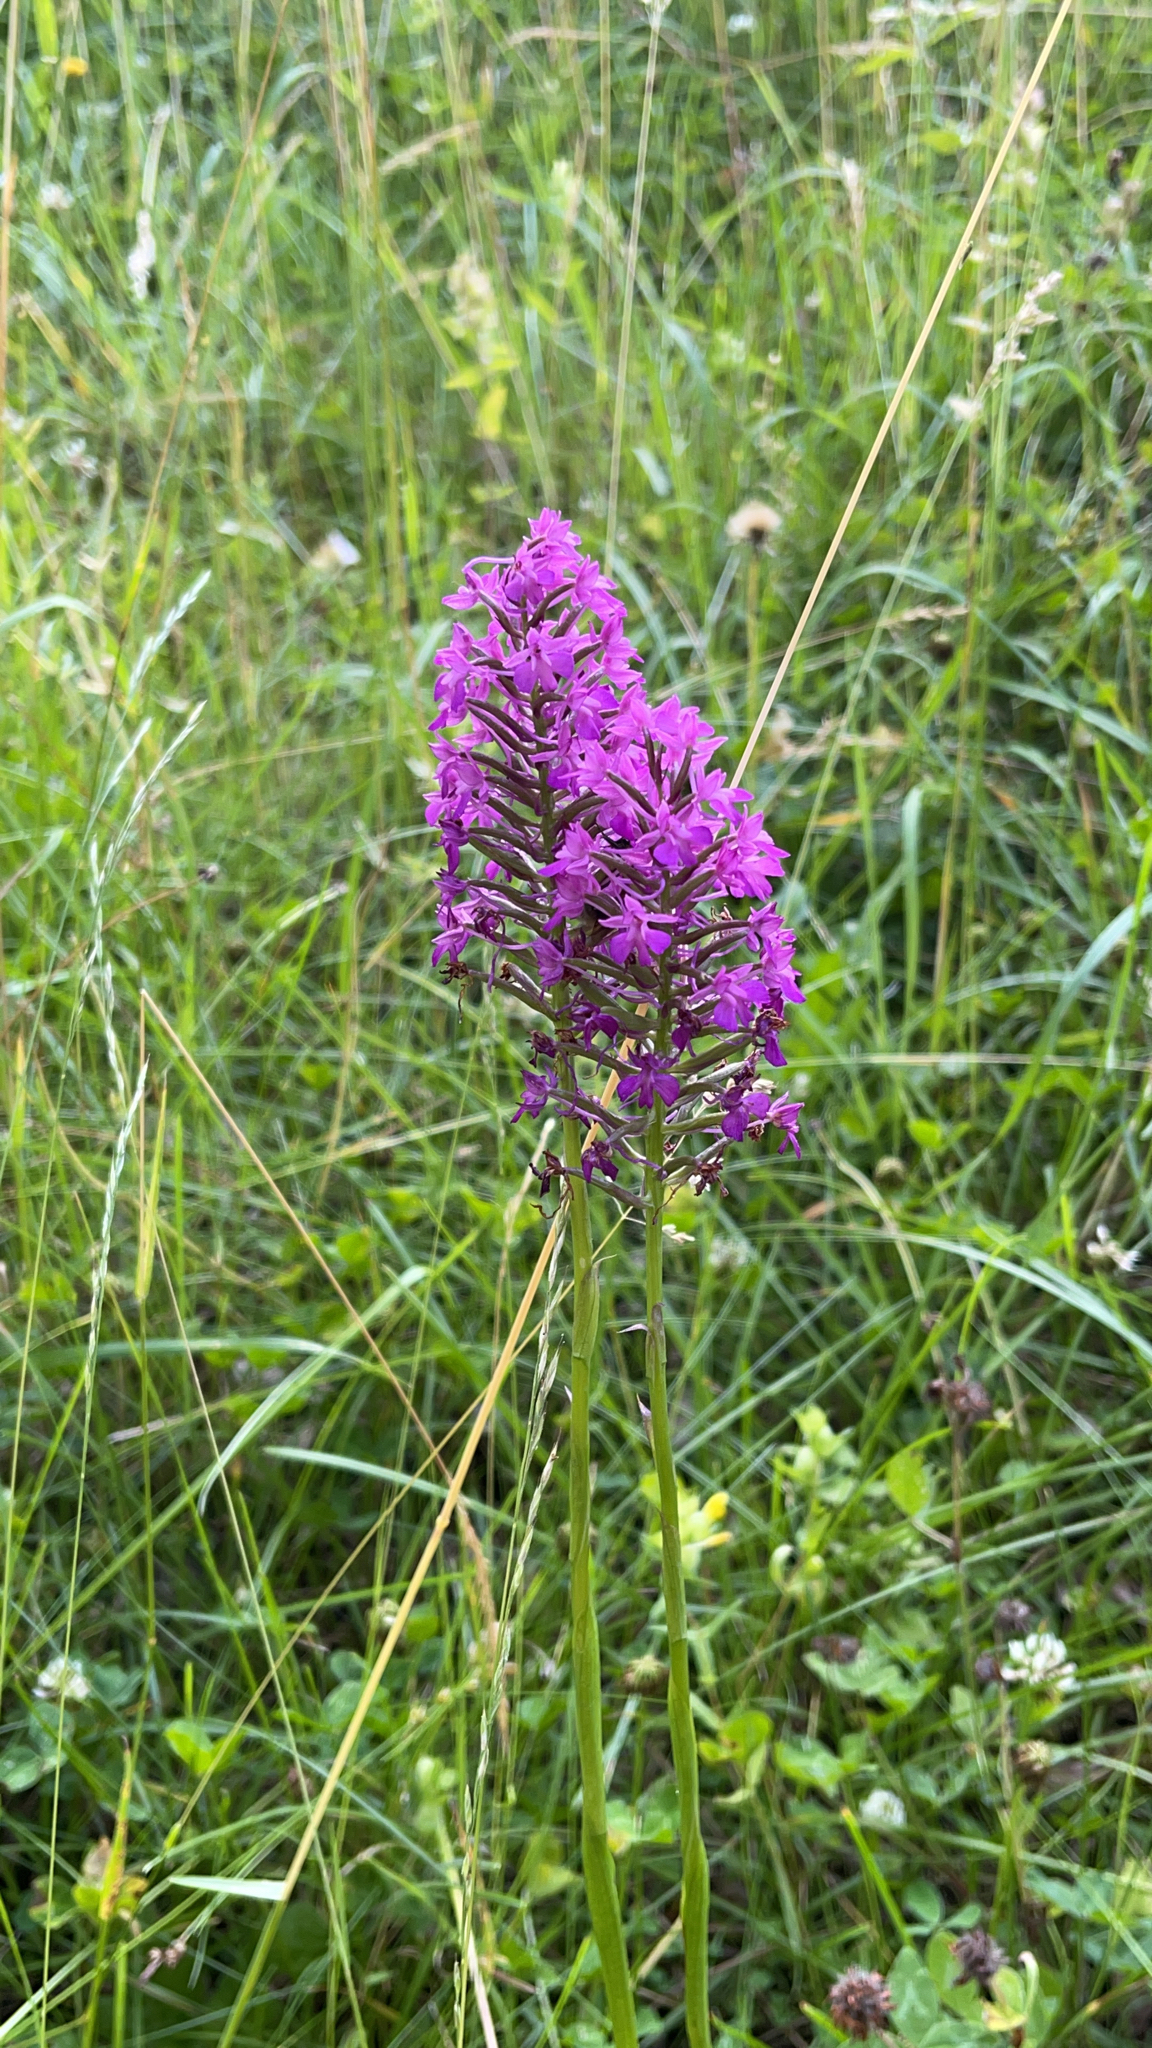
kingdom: Plantae
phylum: Tracheophyta
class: Liliopsida
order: Asparagales
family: Orchidaceae
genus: Anacamptis
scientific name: Anacamptis pyramidalis
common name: Pyramidal orchid
